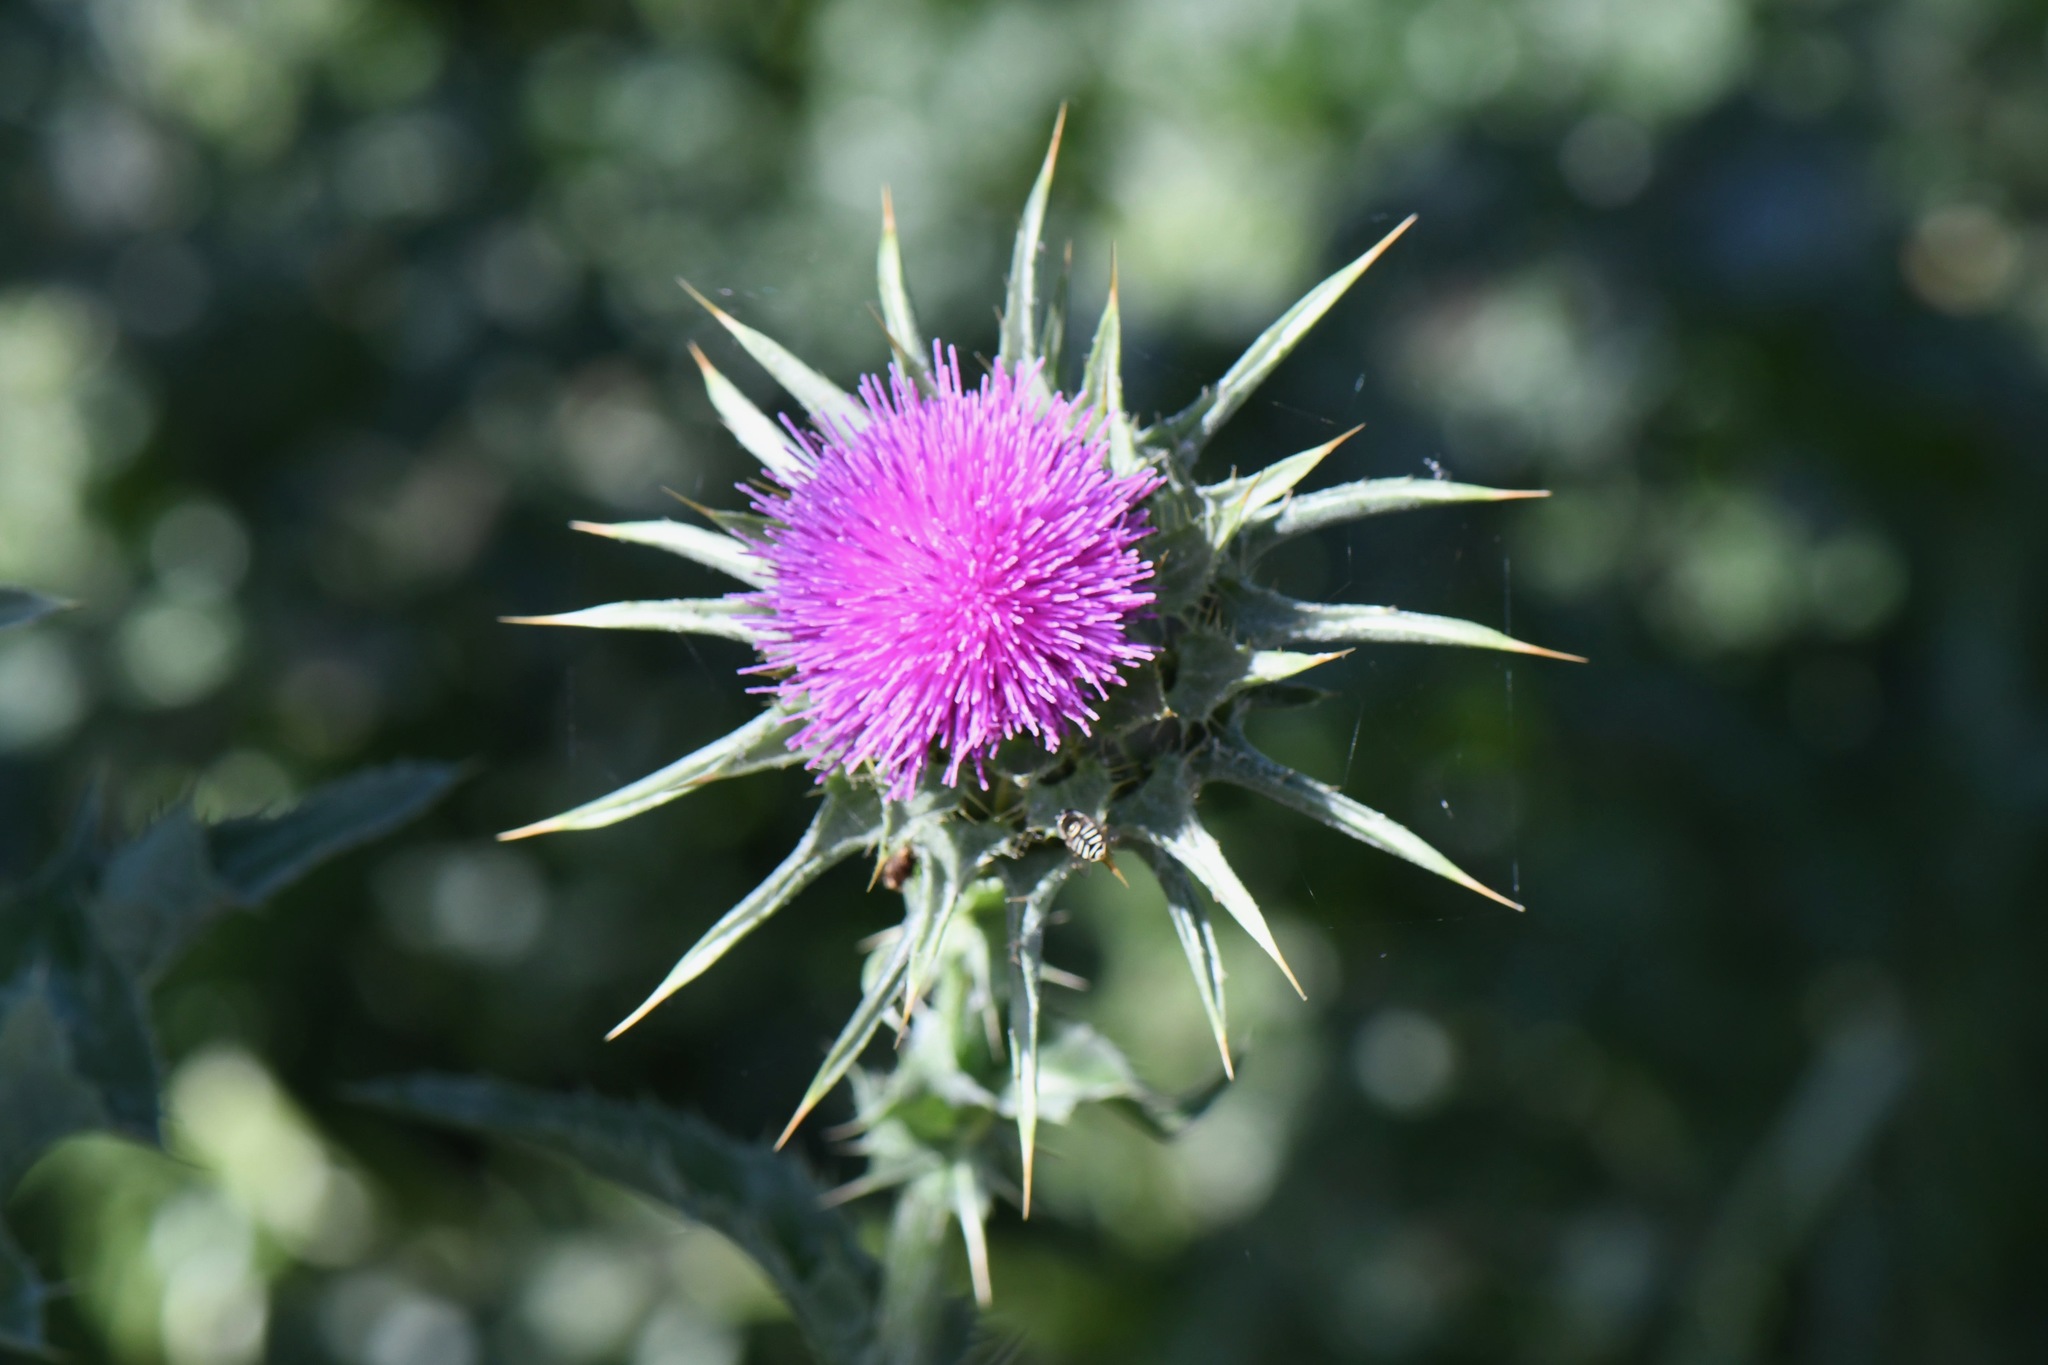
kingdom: Plantae
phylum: Tracheophyta
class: Magnoliopsida
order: Asterales
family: Asteraceae
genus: Silybum
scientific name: Silybum marianum
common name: Milk thistle
